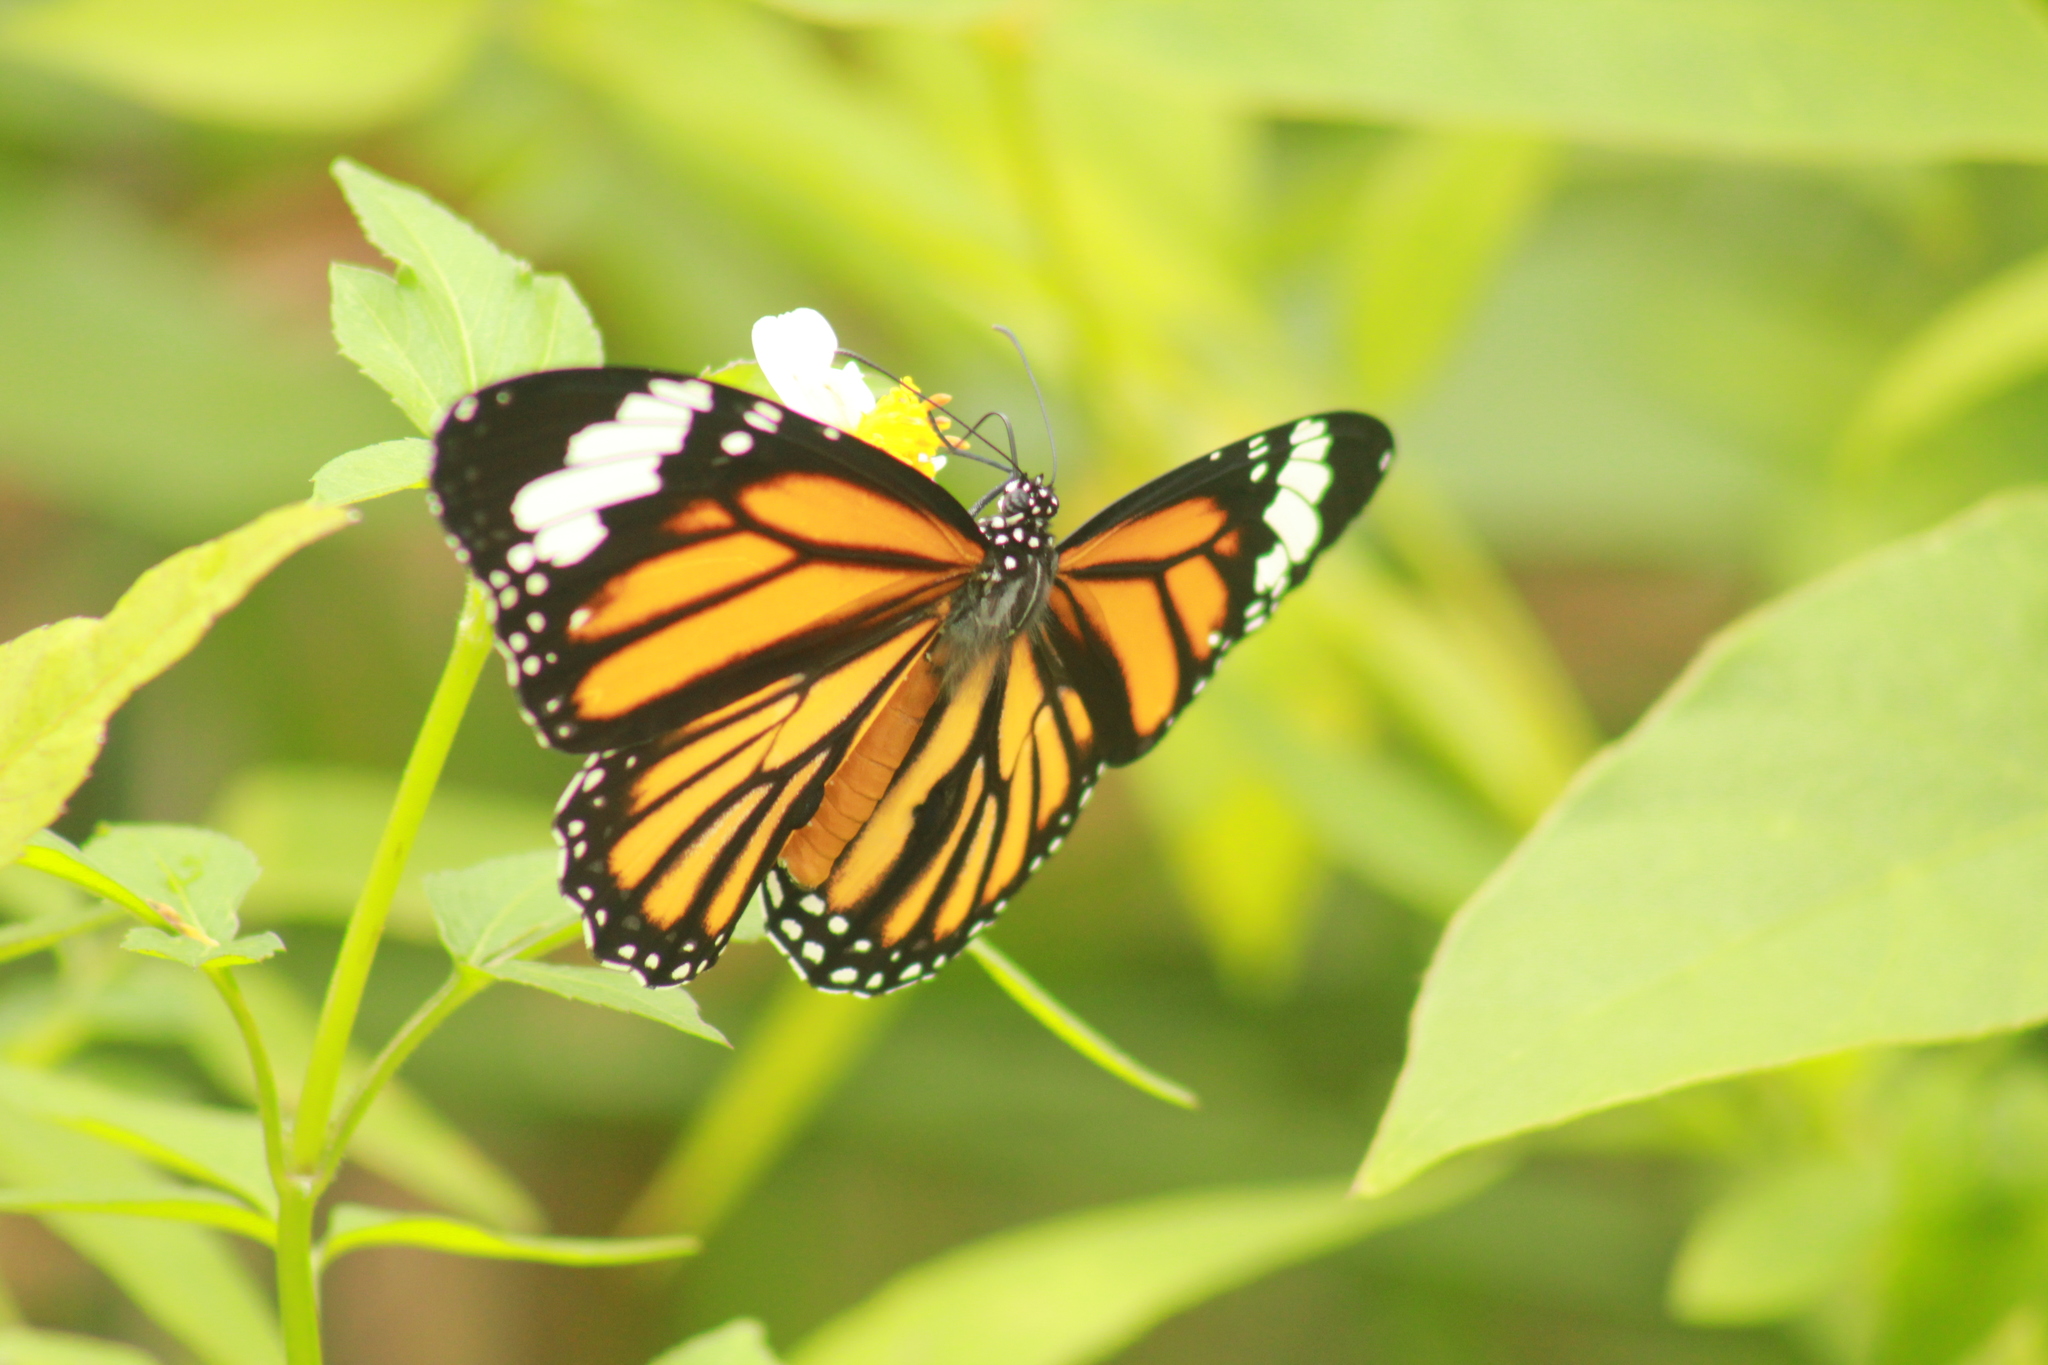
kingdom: Animalia
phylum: Arthropoda
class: Insecta
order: Lepidoptera
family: Nymphalidae
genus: Danaus
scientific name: Danaus genutia
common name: Common tiger butterfly
